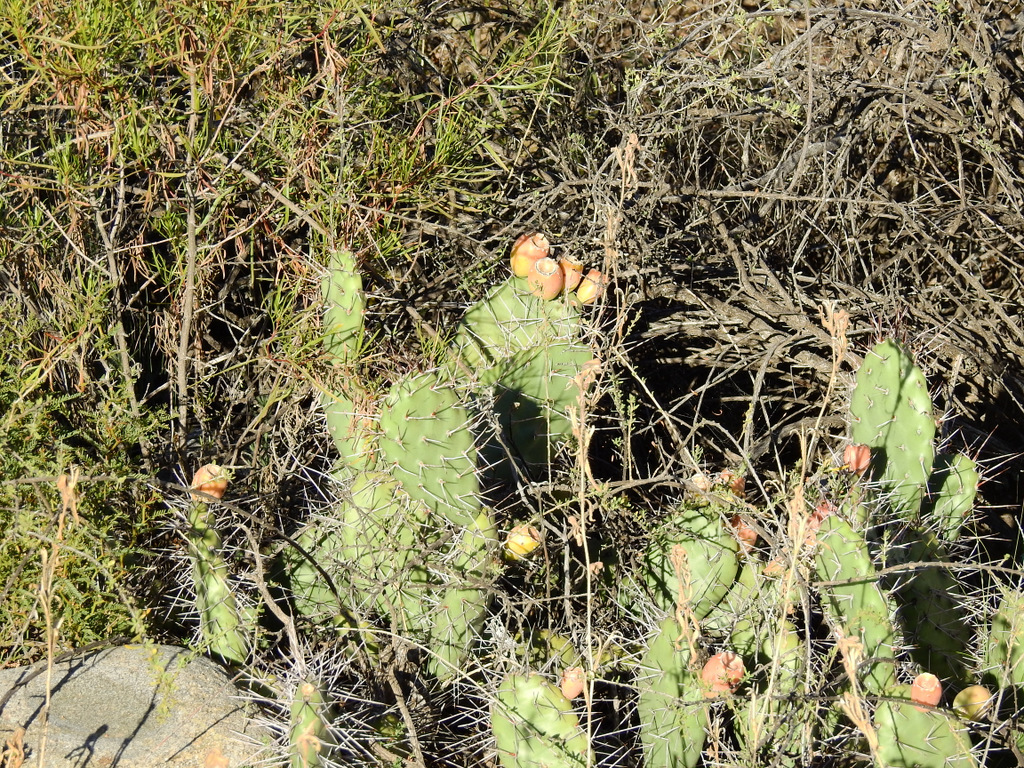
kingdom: Plantae
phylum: Tracheophyta
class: Magnoliopsida
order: Caryophyllales
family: Cactaceae
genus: Opuntia
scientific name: Opuntia sulphurea
